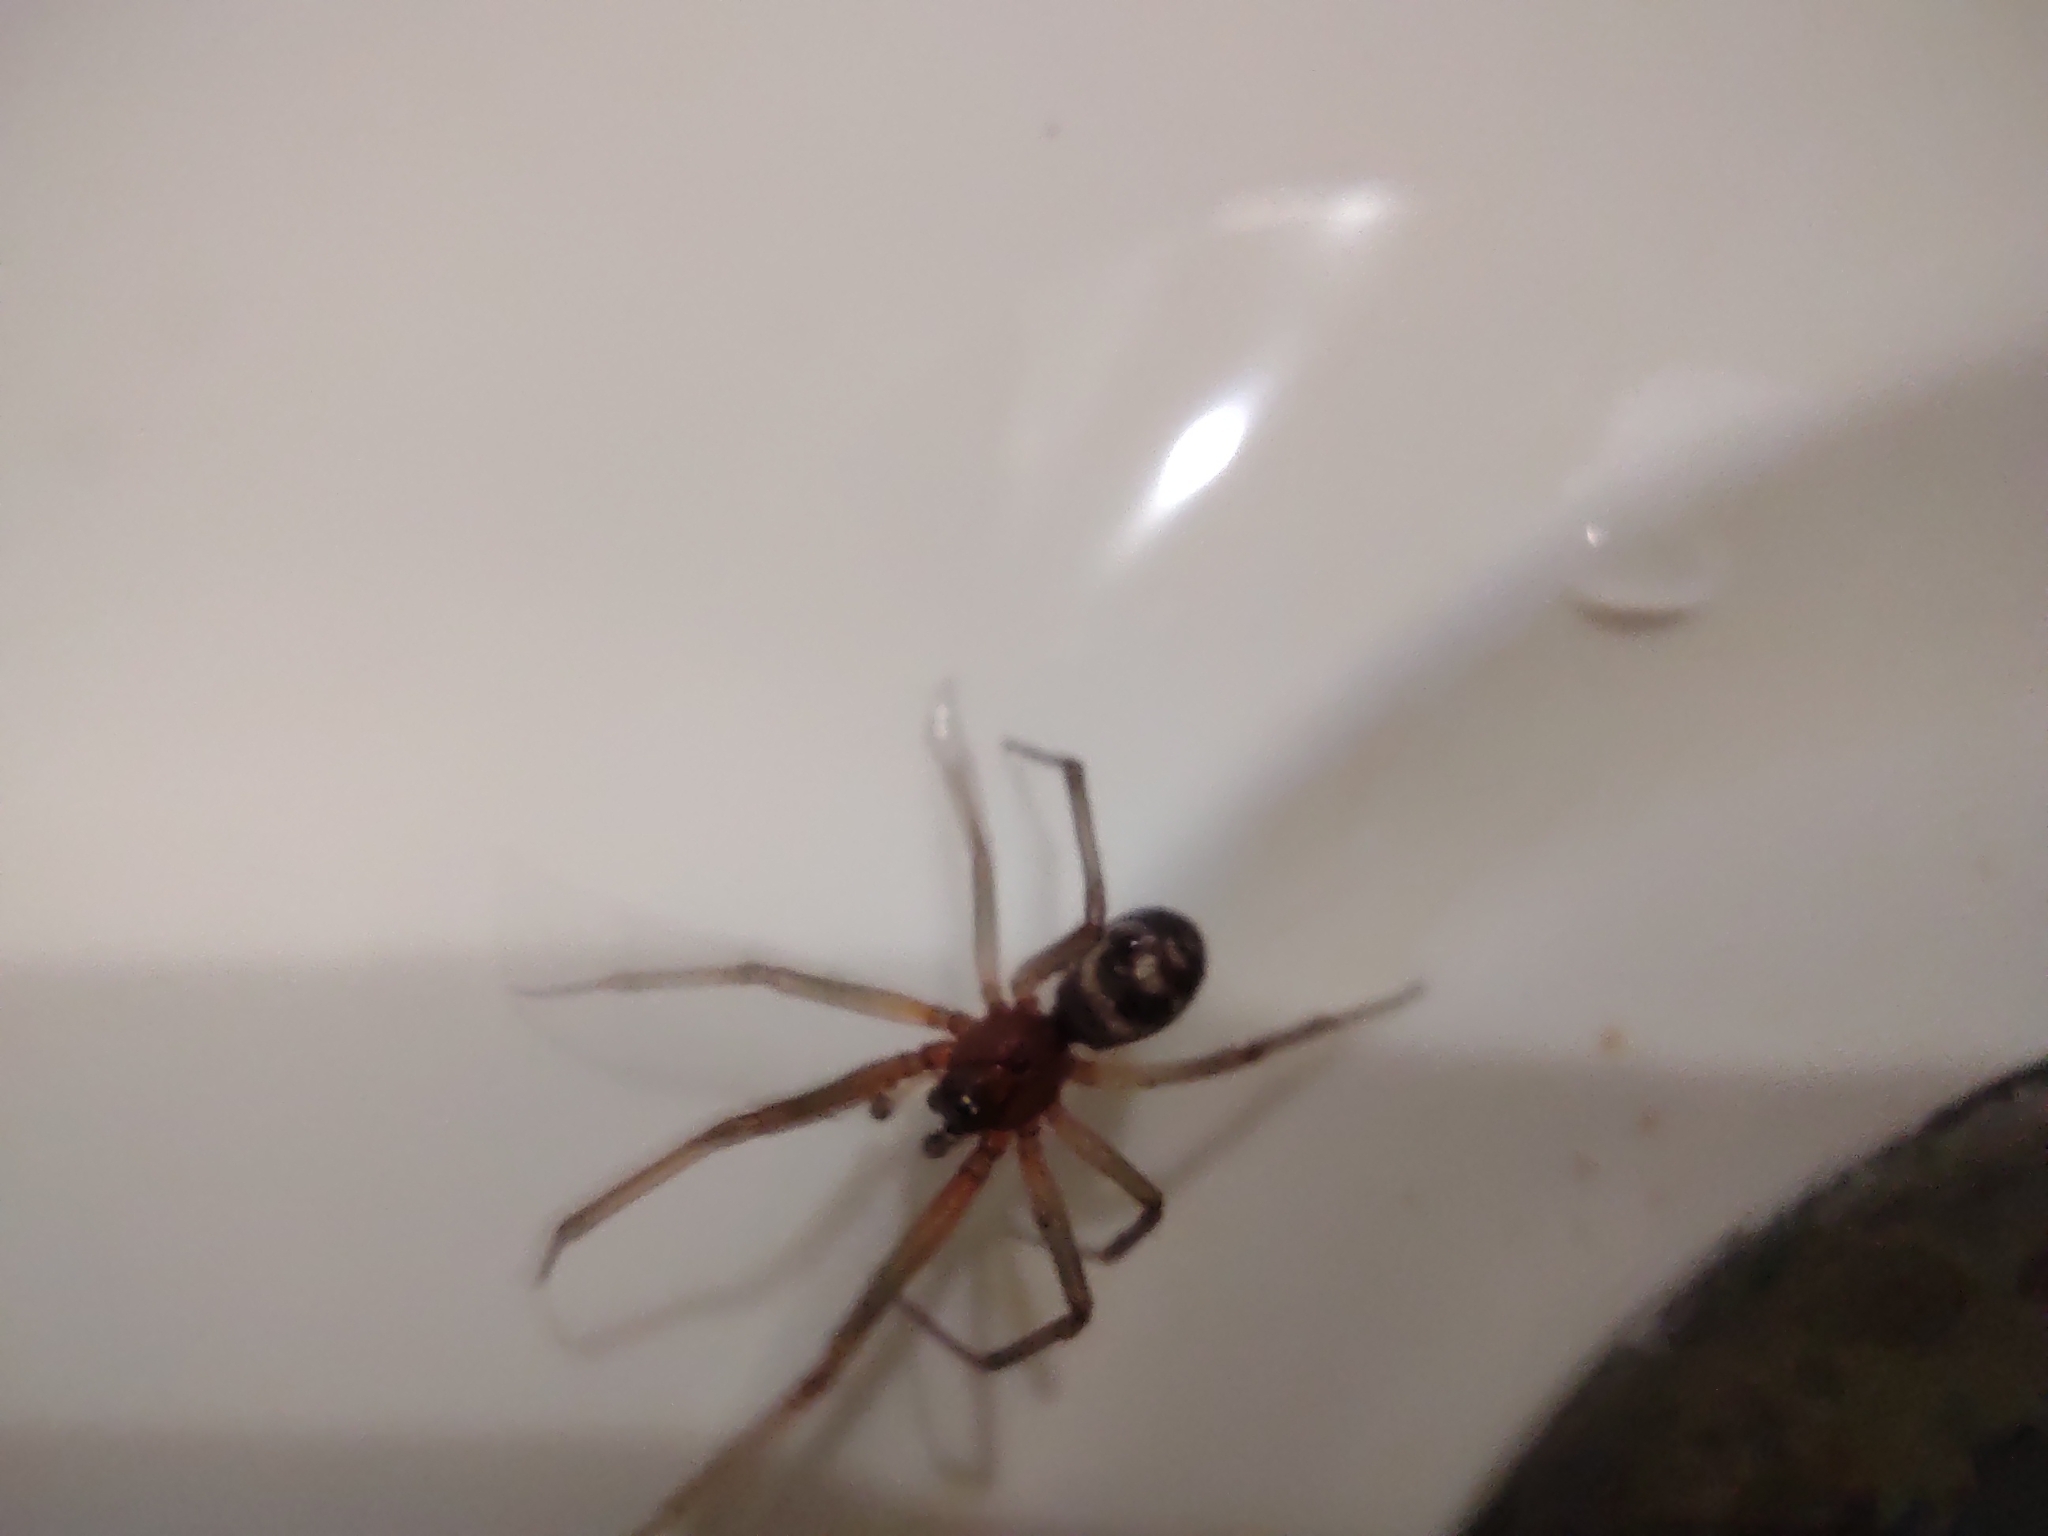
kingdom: Animalia
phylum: Arthropoda
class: Arachnida
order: Araneae
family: Theridiidae
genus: Steatoda
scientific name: Steatoda grossa
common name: False black widow
